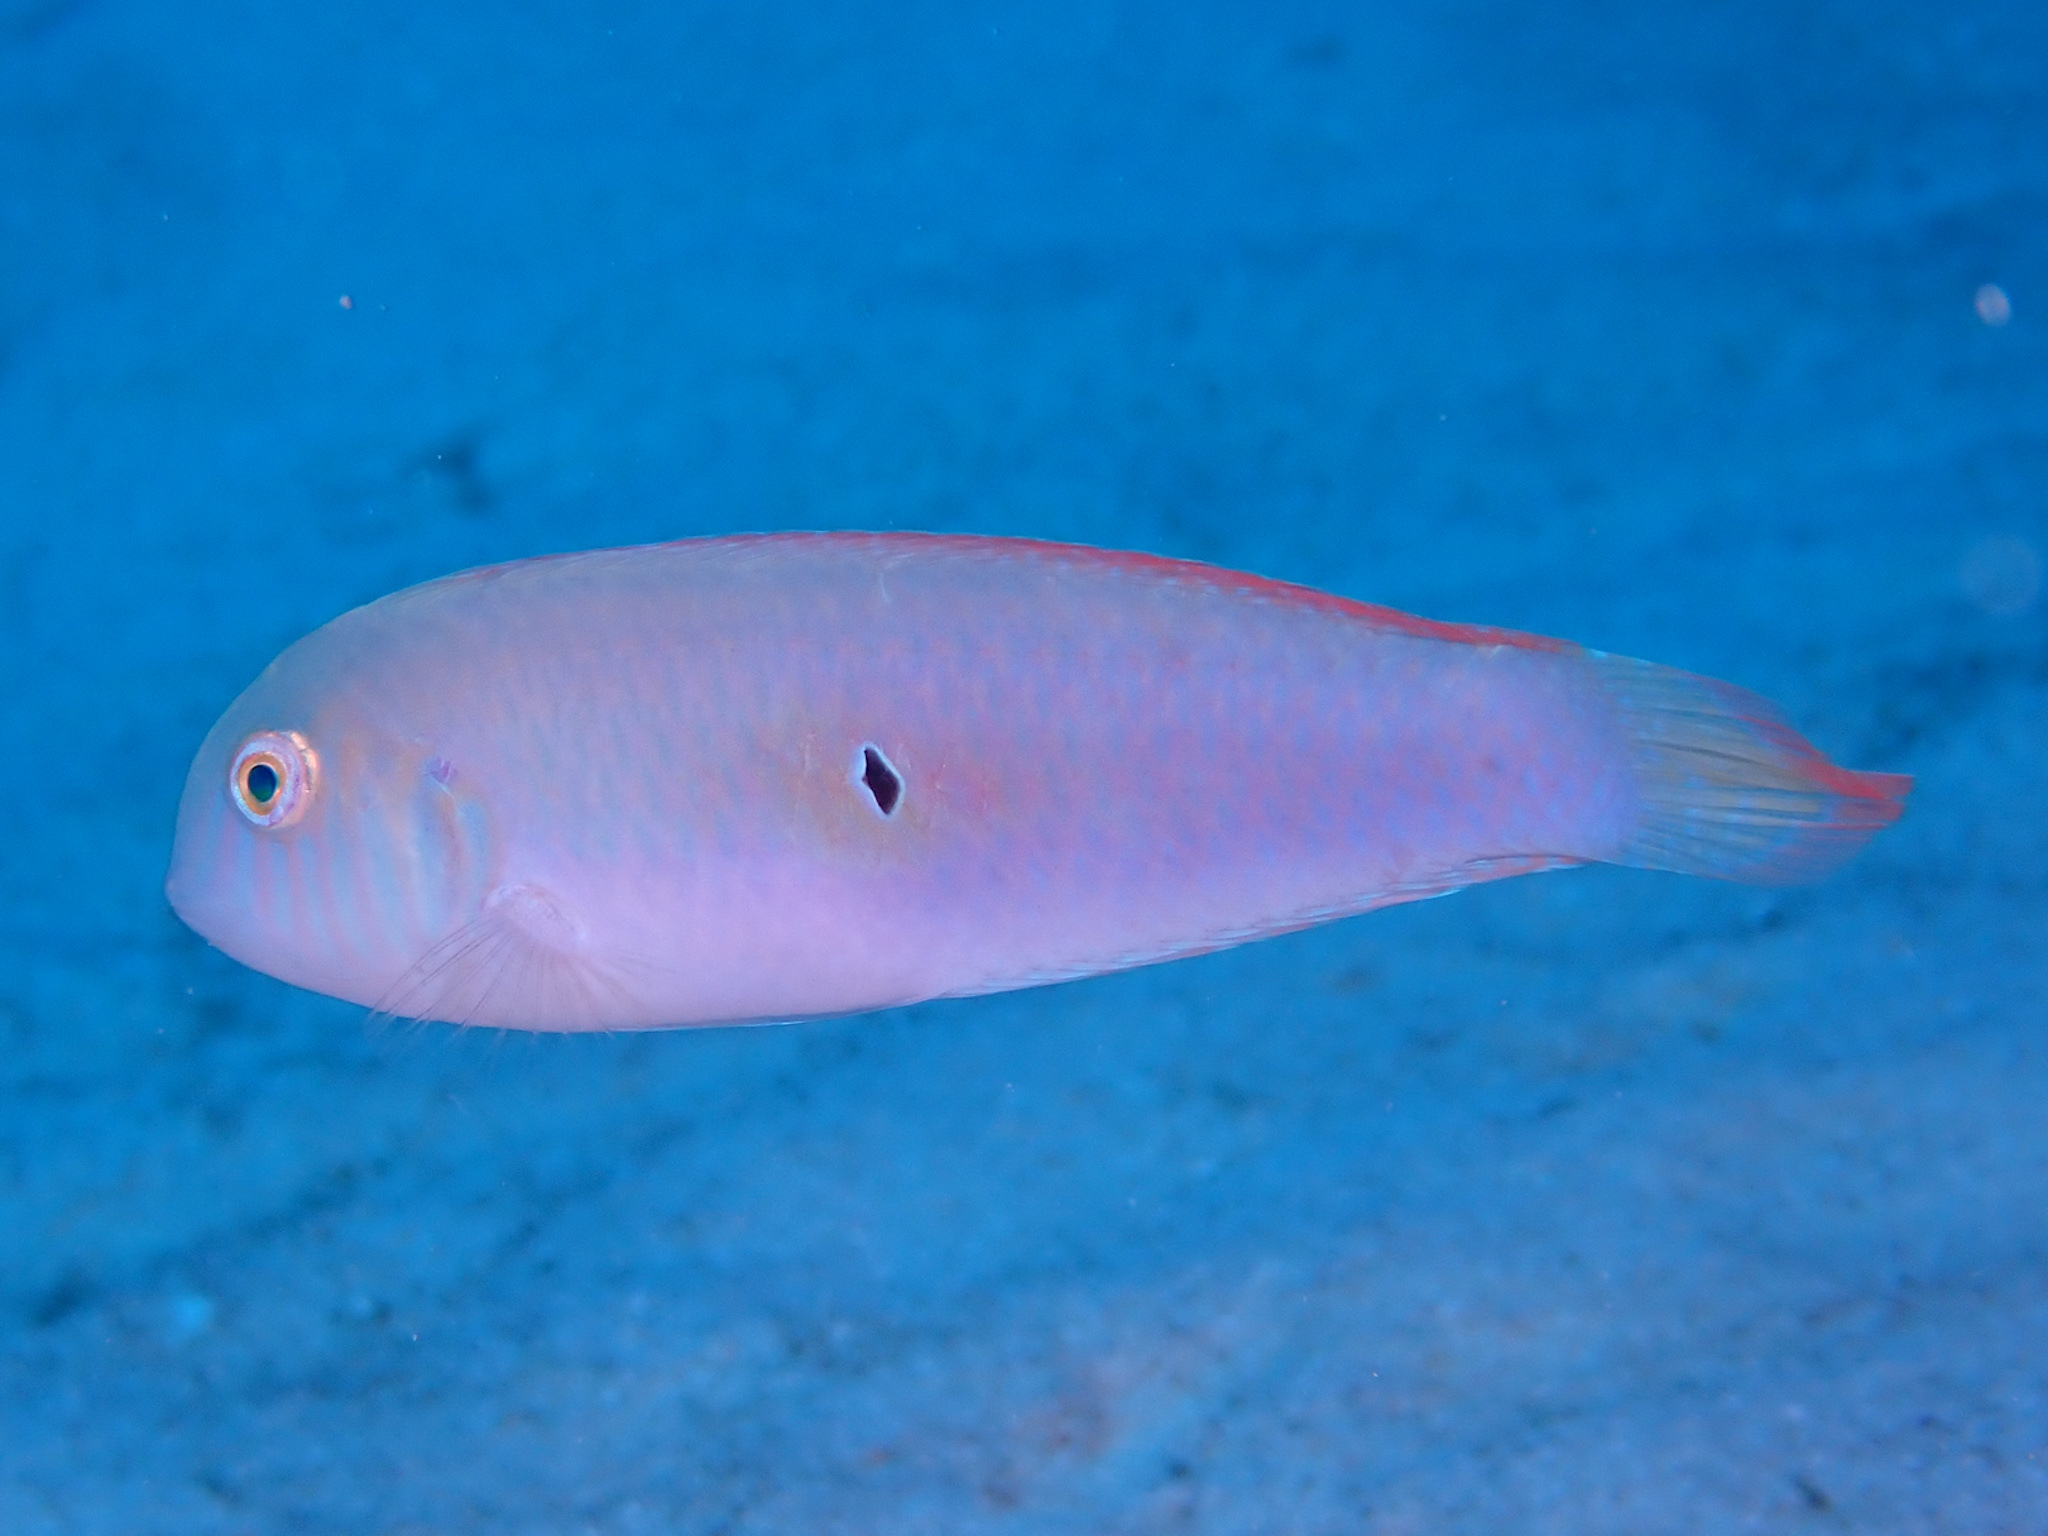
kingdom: Animalia
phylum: Chordata
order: Perciformes
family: Labridae
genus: Xyrichtys
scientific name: Xyrichtys splendens
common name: Green razorfish
